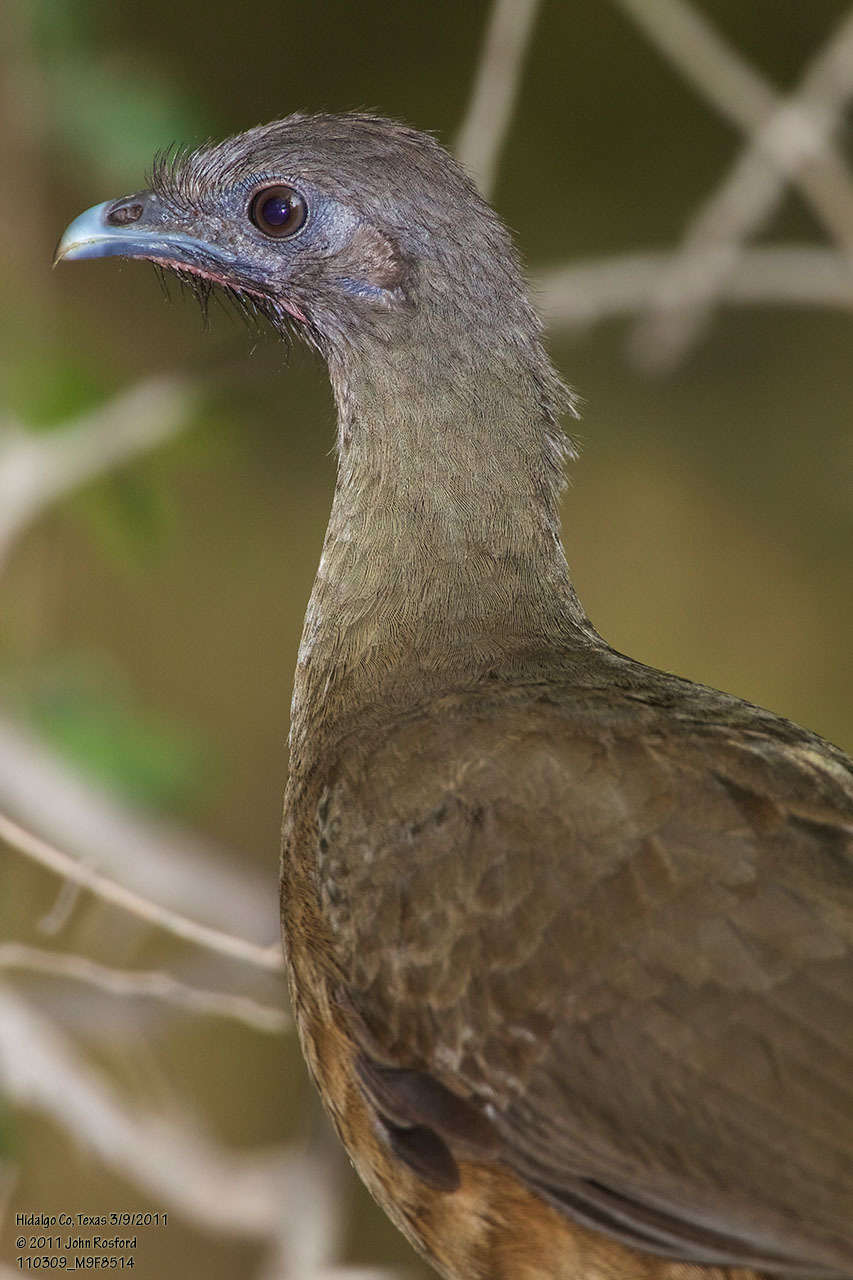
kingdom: Animalia
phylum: Chordata
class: Aves
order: Galliformes
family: Cracidae
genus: Ortalis
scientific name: Ortalis vetula
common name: Plain chachalaca
